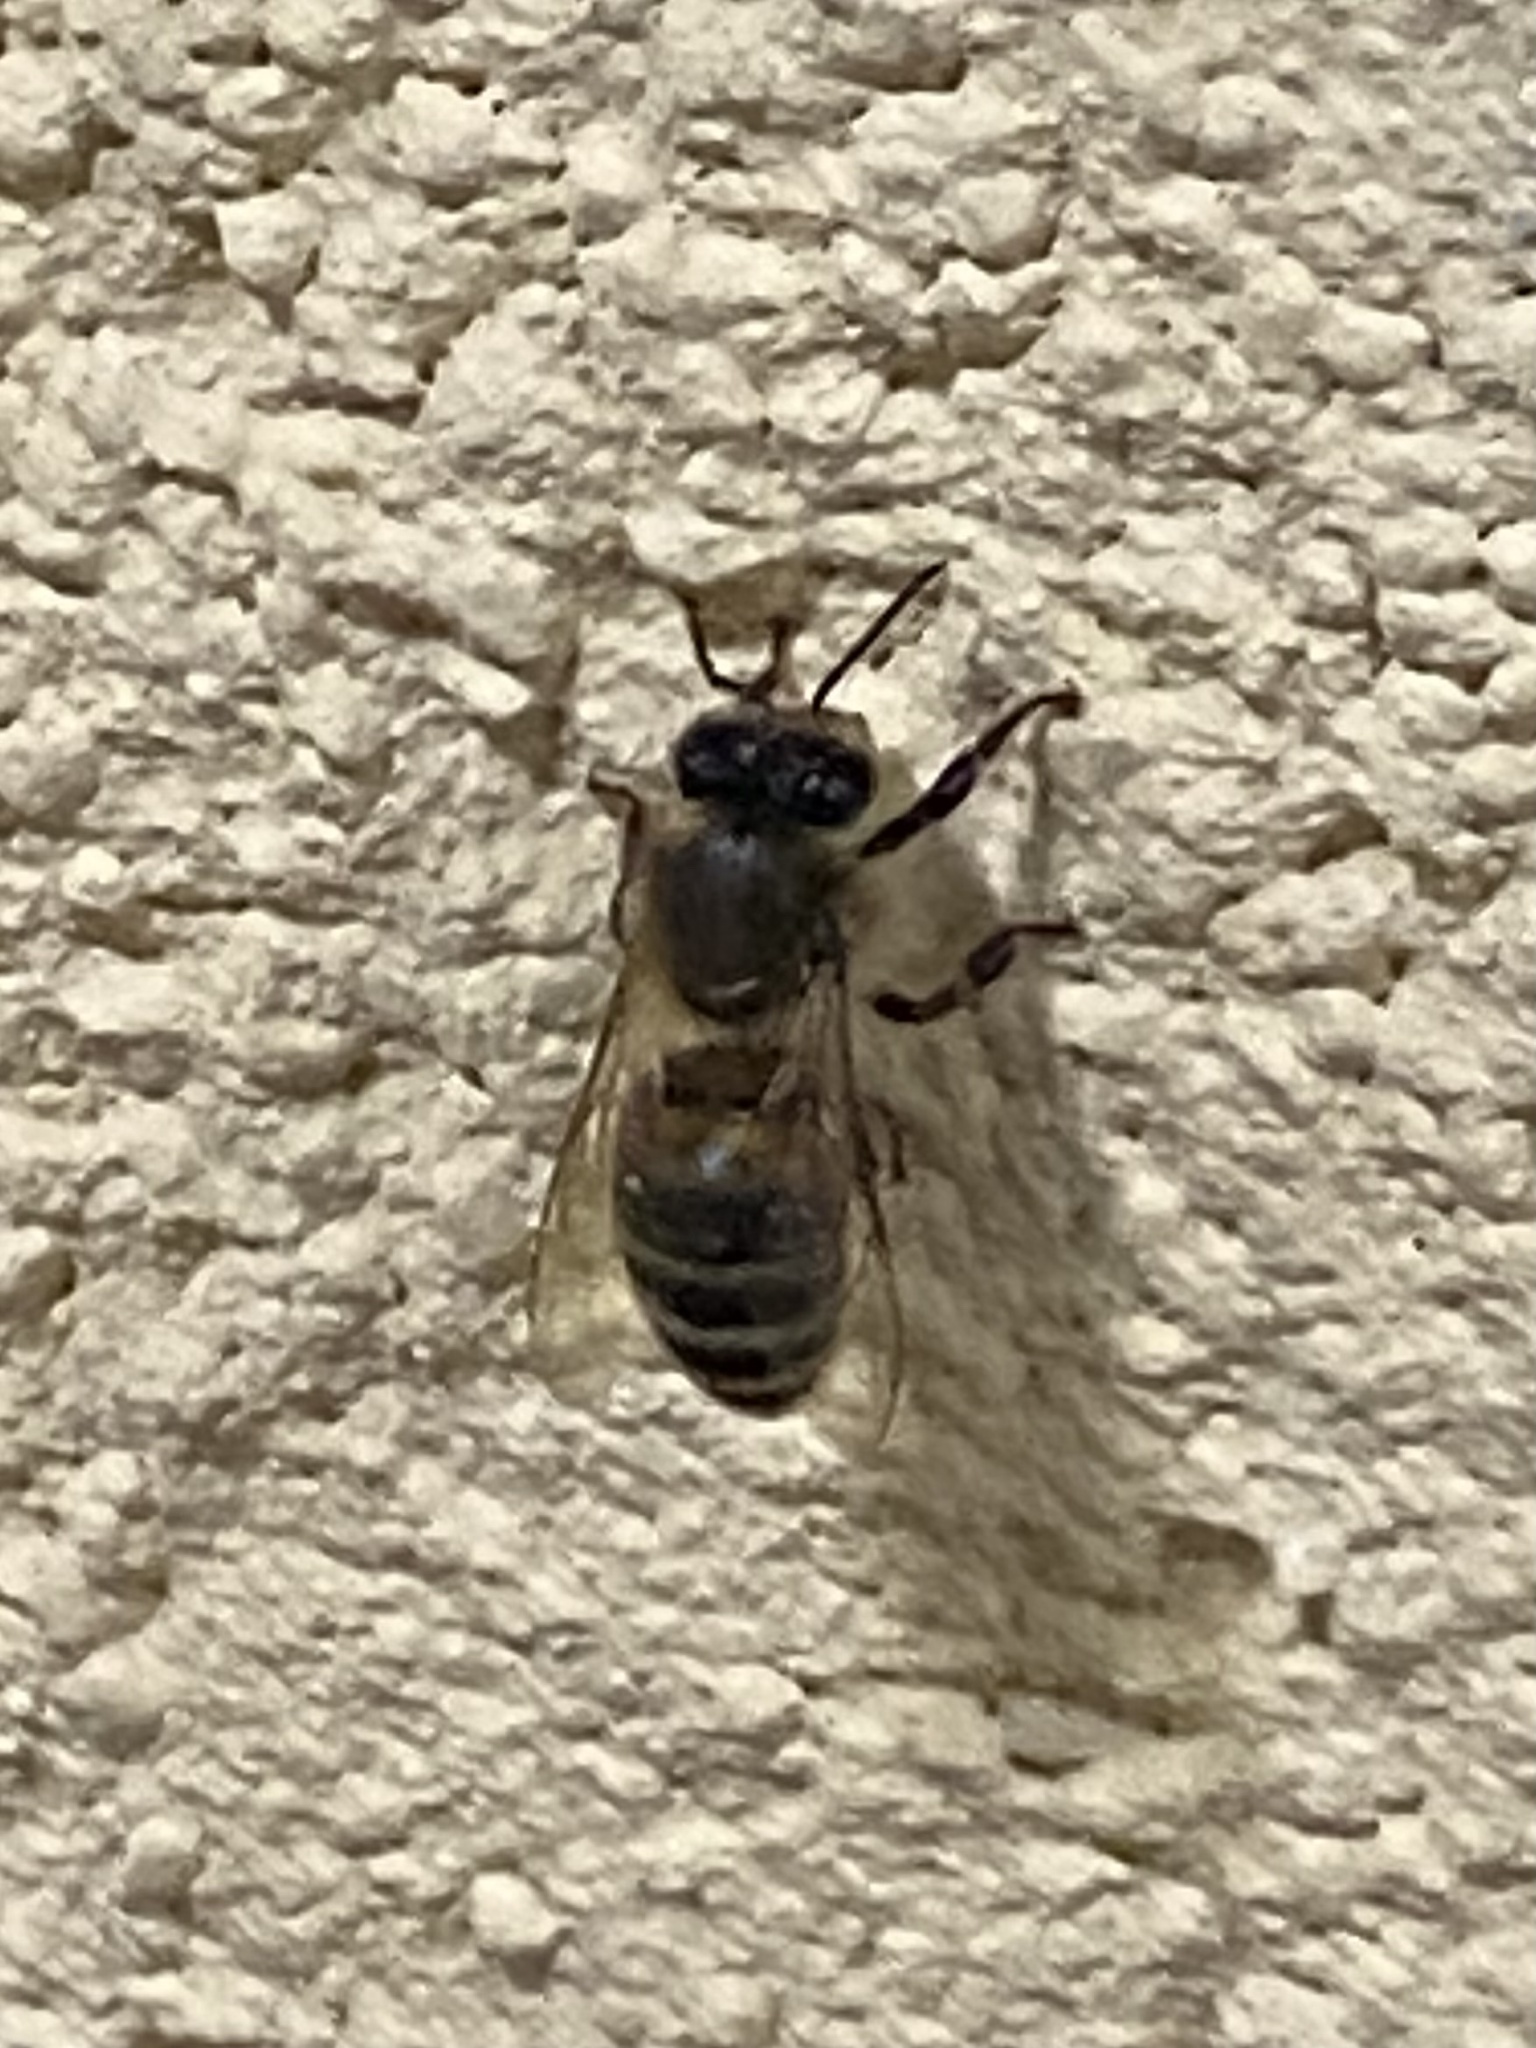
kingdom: Animalia
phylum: Arthropoda
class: Insecta
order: Hymenoptera
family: Apidae
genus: Apis
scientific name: Apis mellifera
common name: Honey bee
